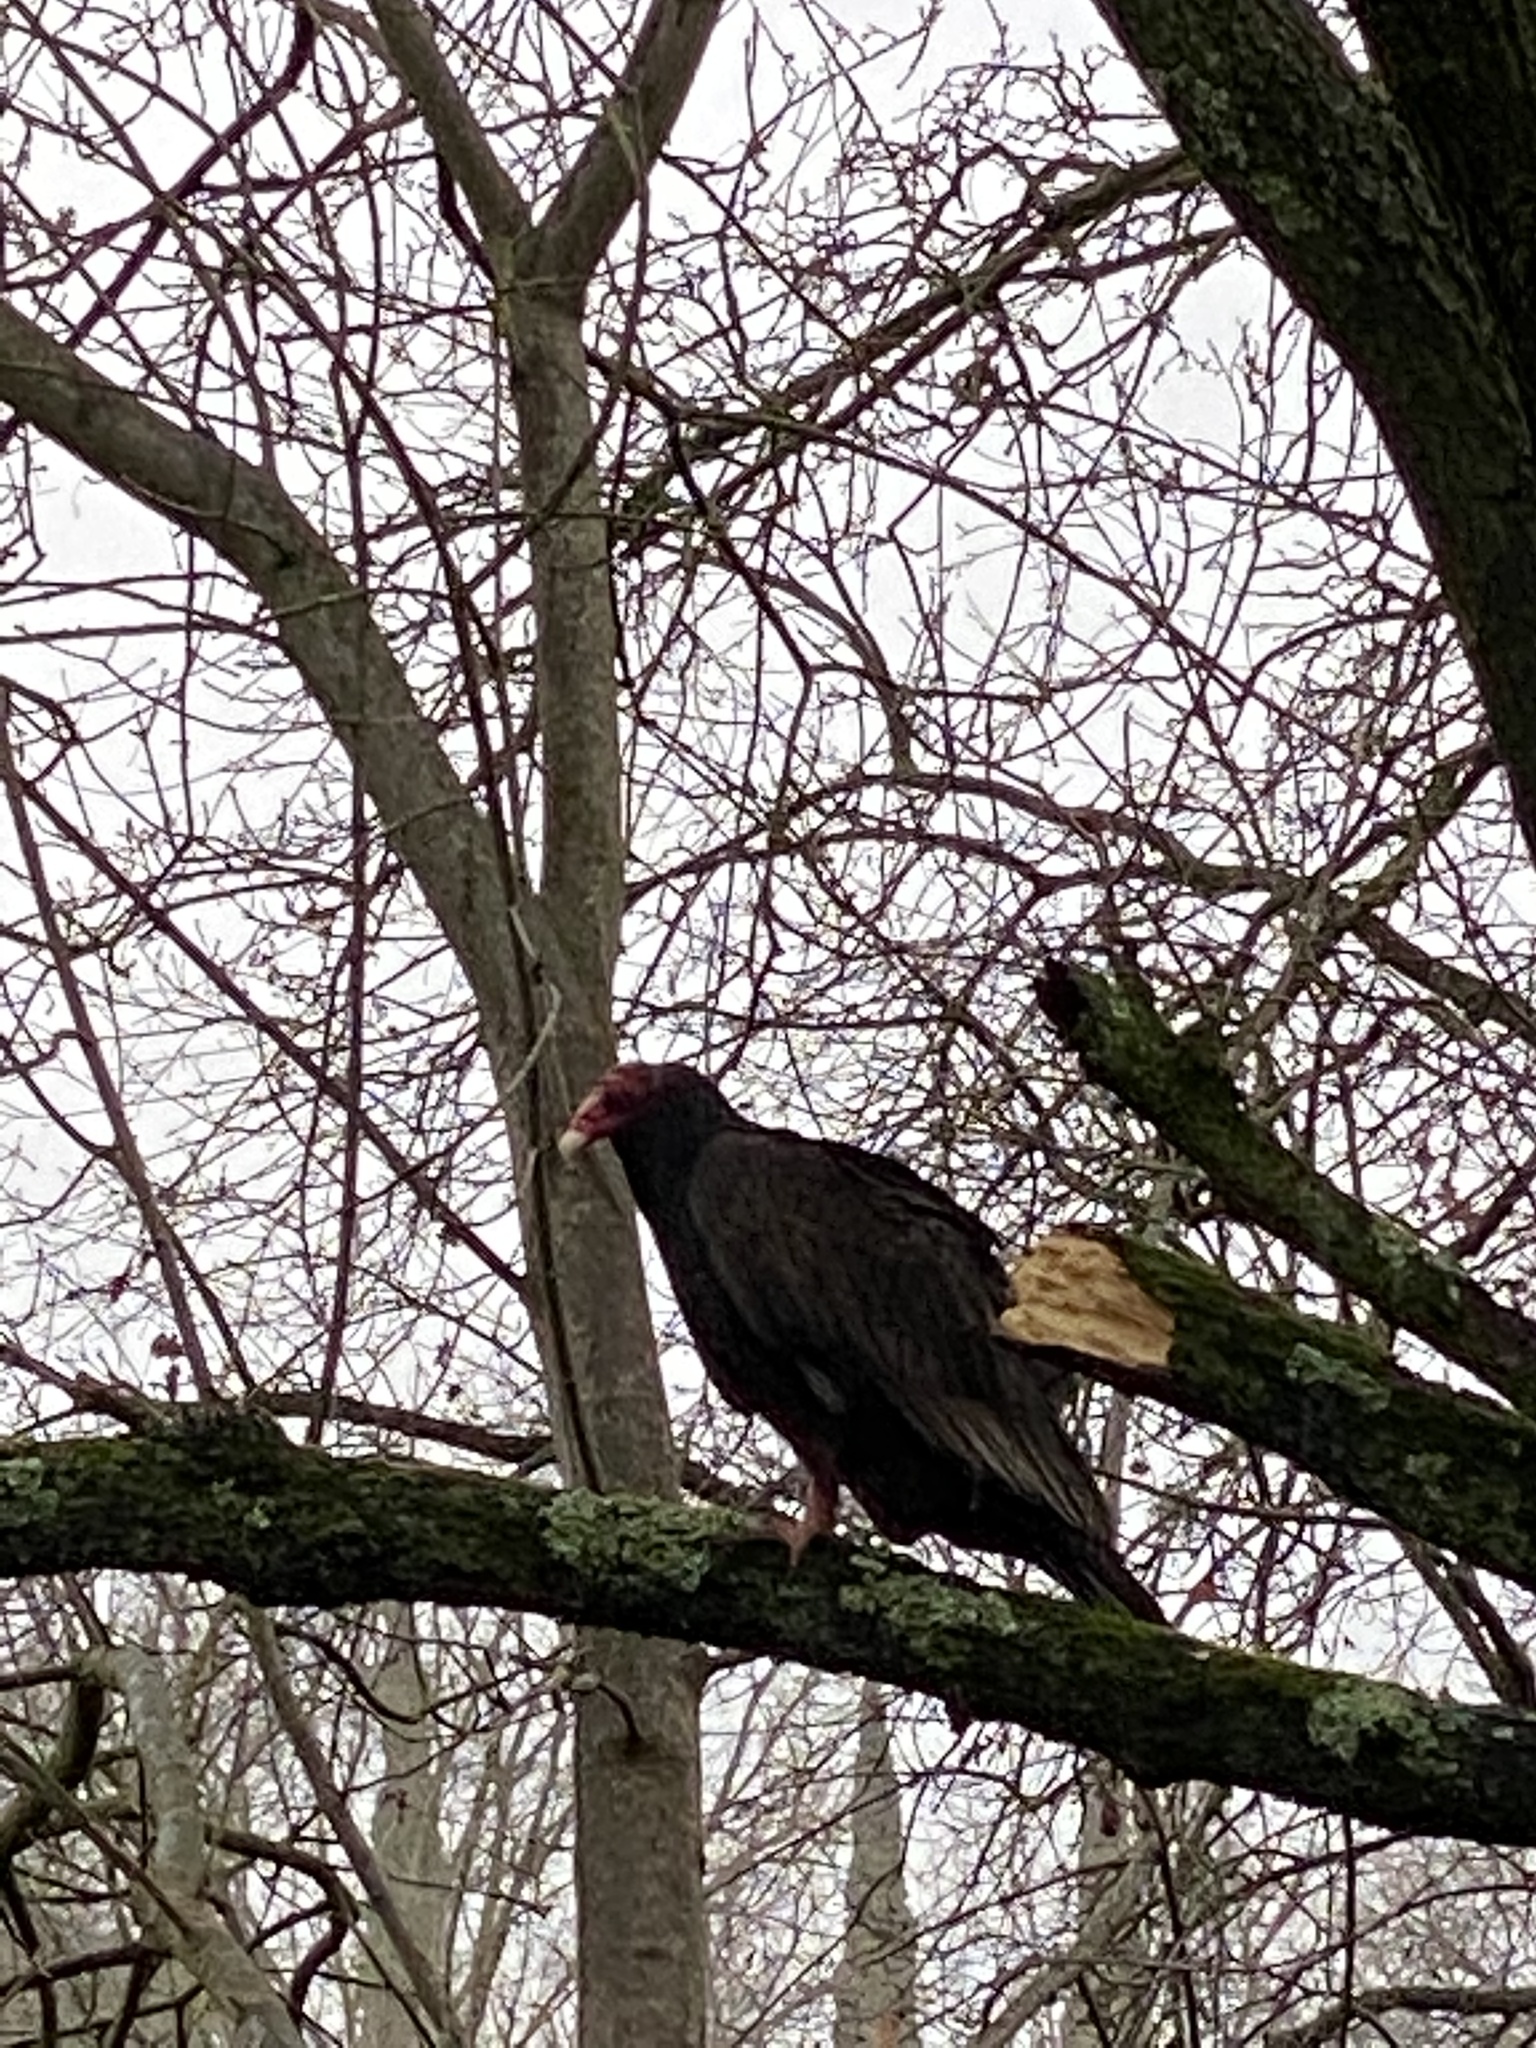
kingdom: Animalia
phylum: Chordata
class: Aves
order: Accipitriformes
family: Cathartidae
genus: Cathartes
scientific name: Cathartes aura
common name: Turkey vulture
